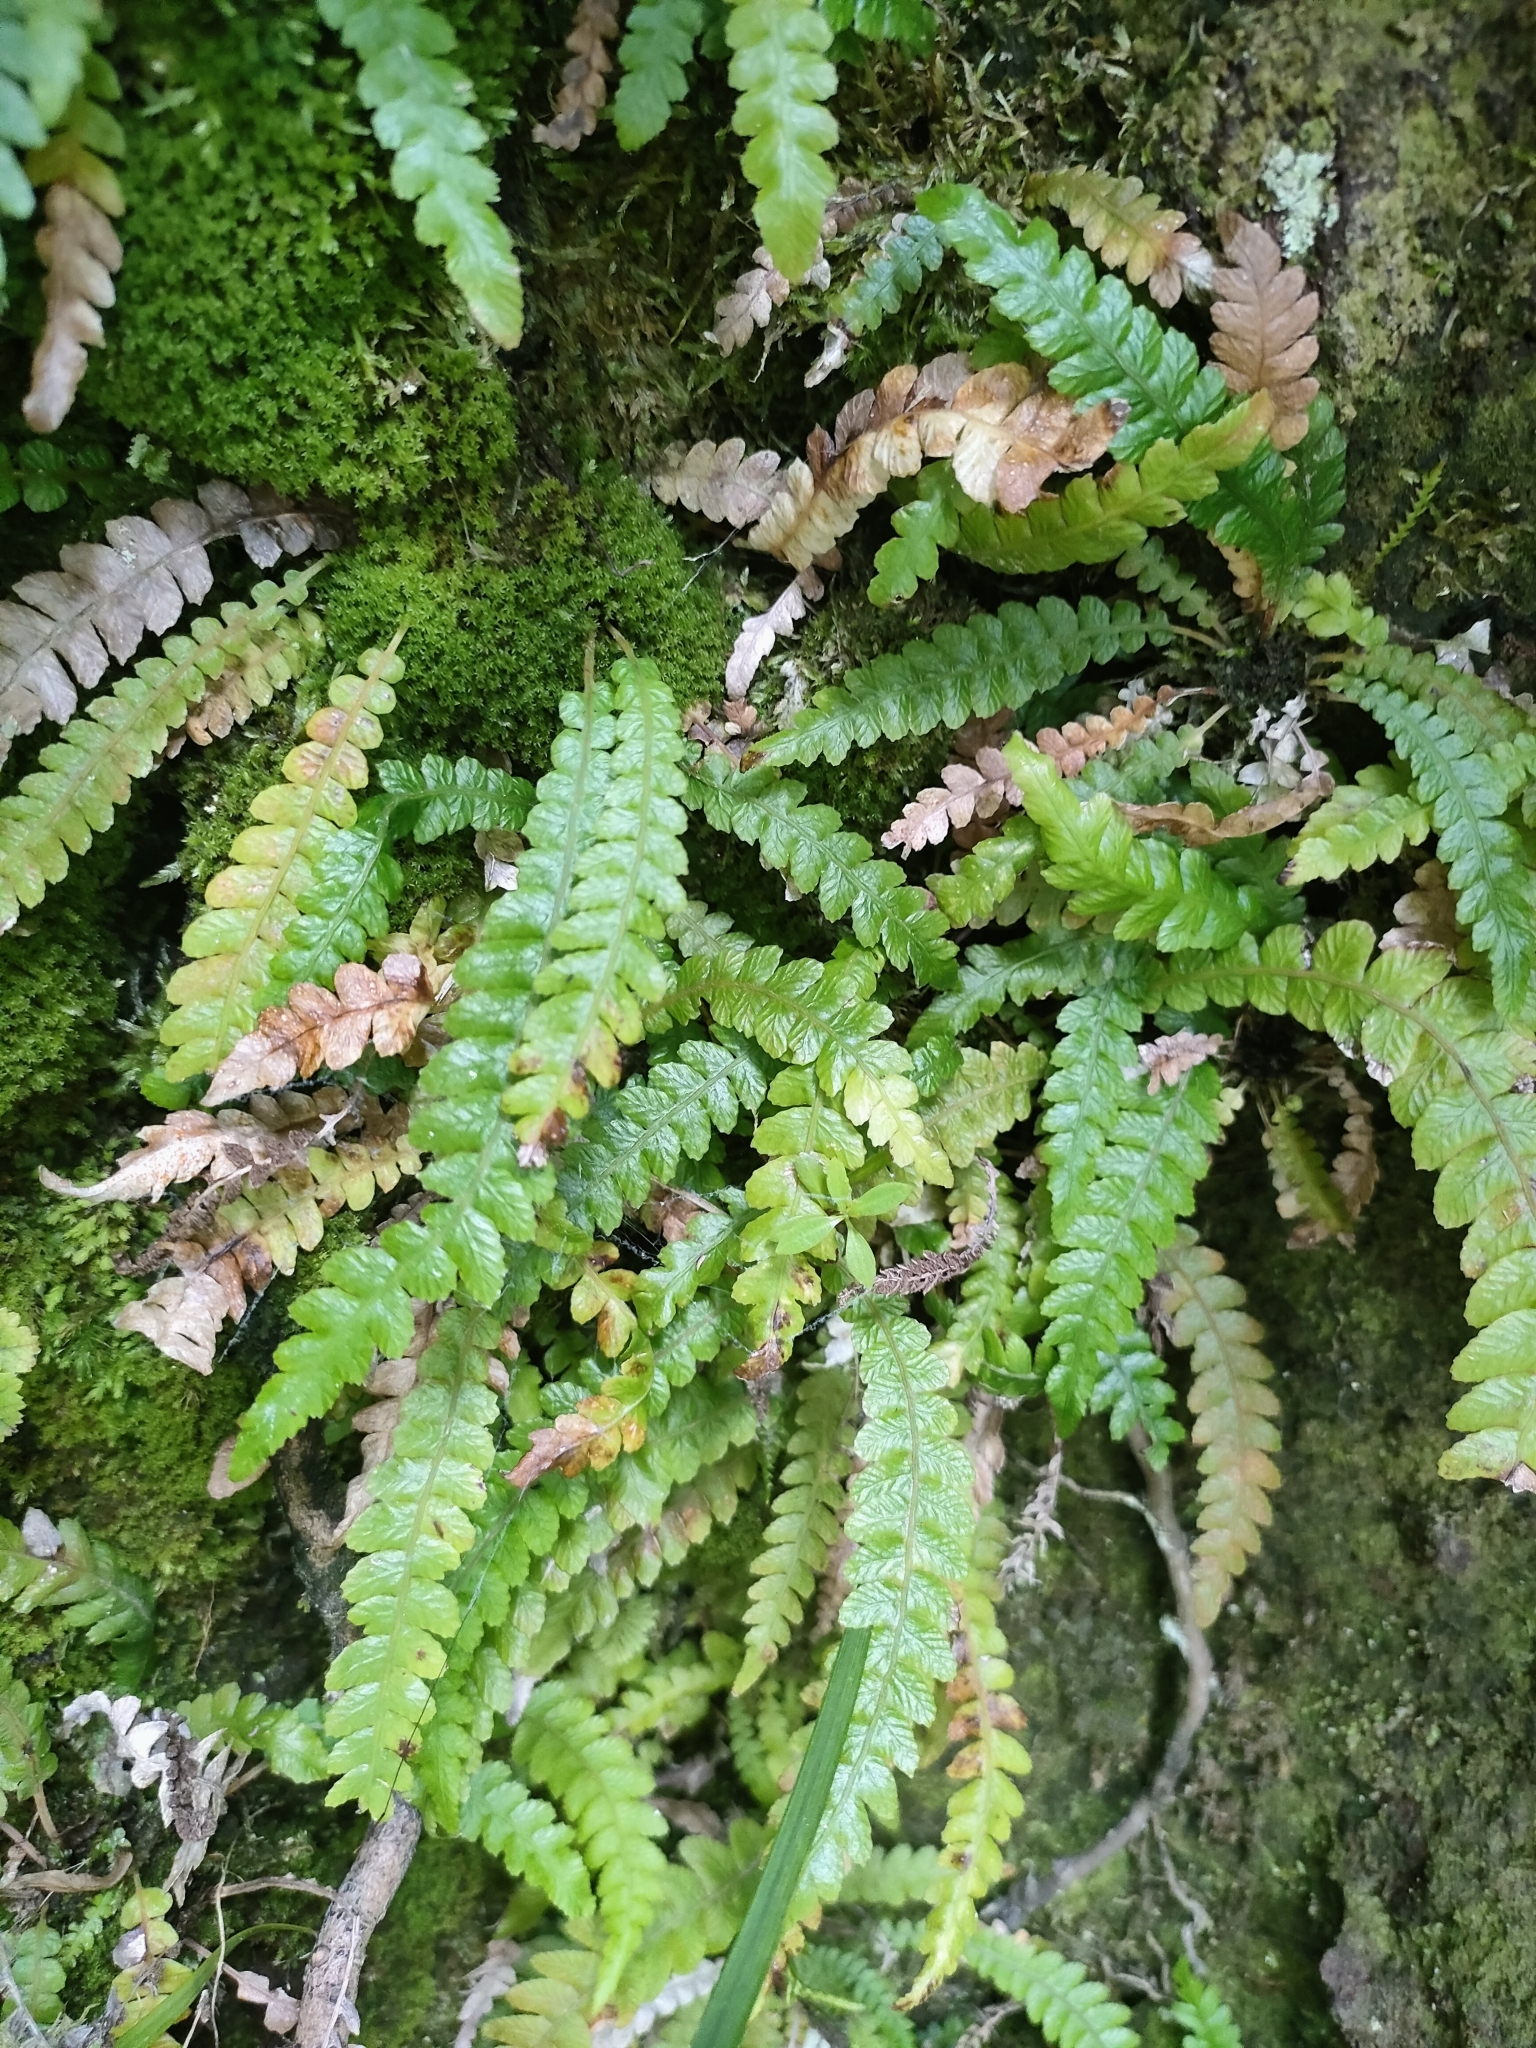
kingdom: Plantae
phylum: Tracheophyta
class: Polypodiopsida
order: Polypodiales
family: Blechnaceae
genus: Austroblechnum
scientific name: Austroblechnum membranaceum
